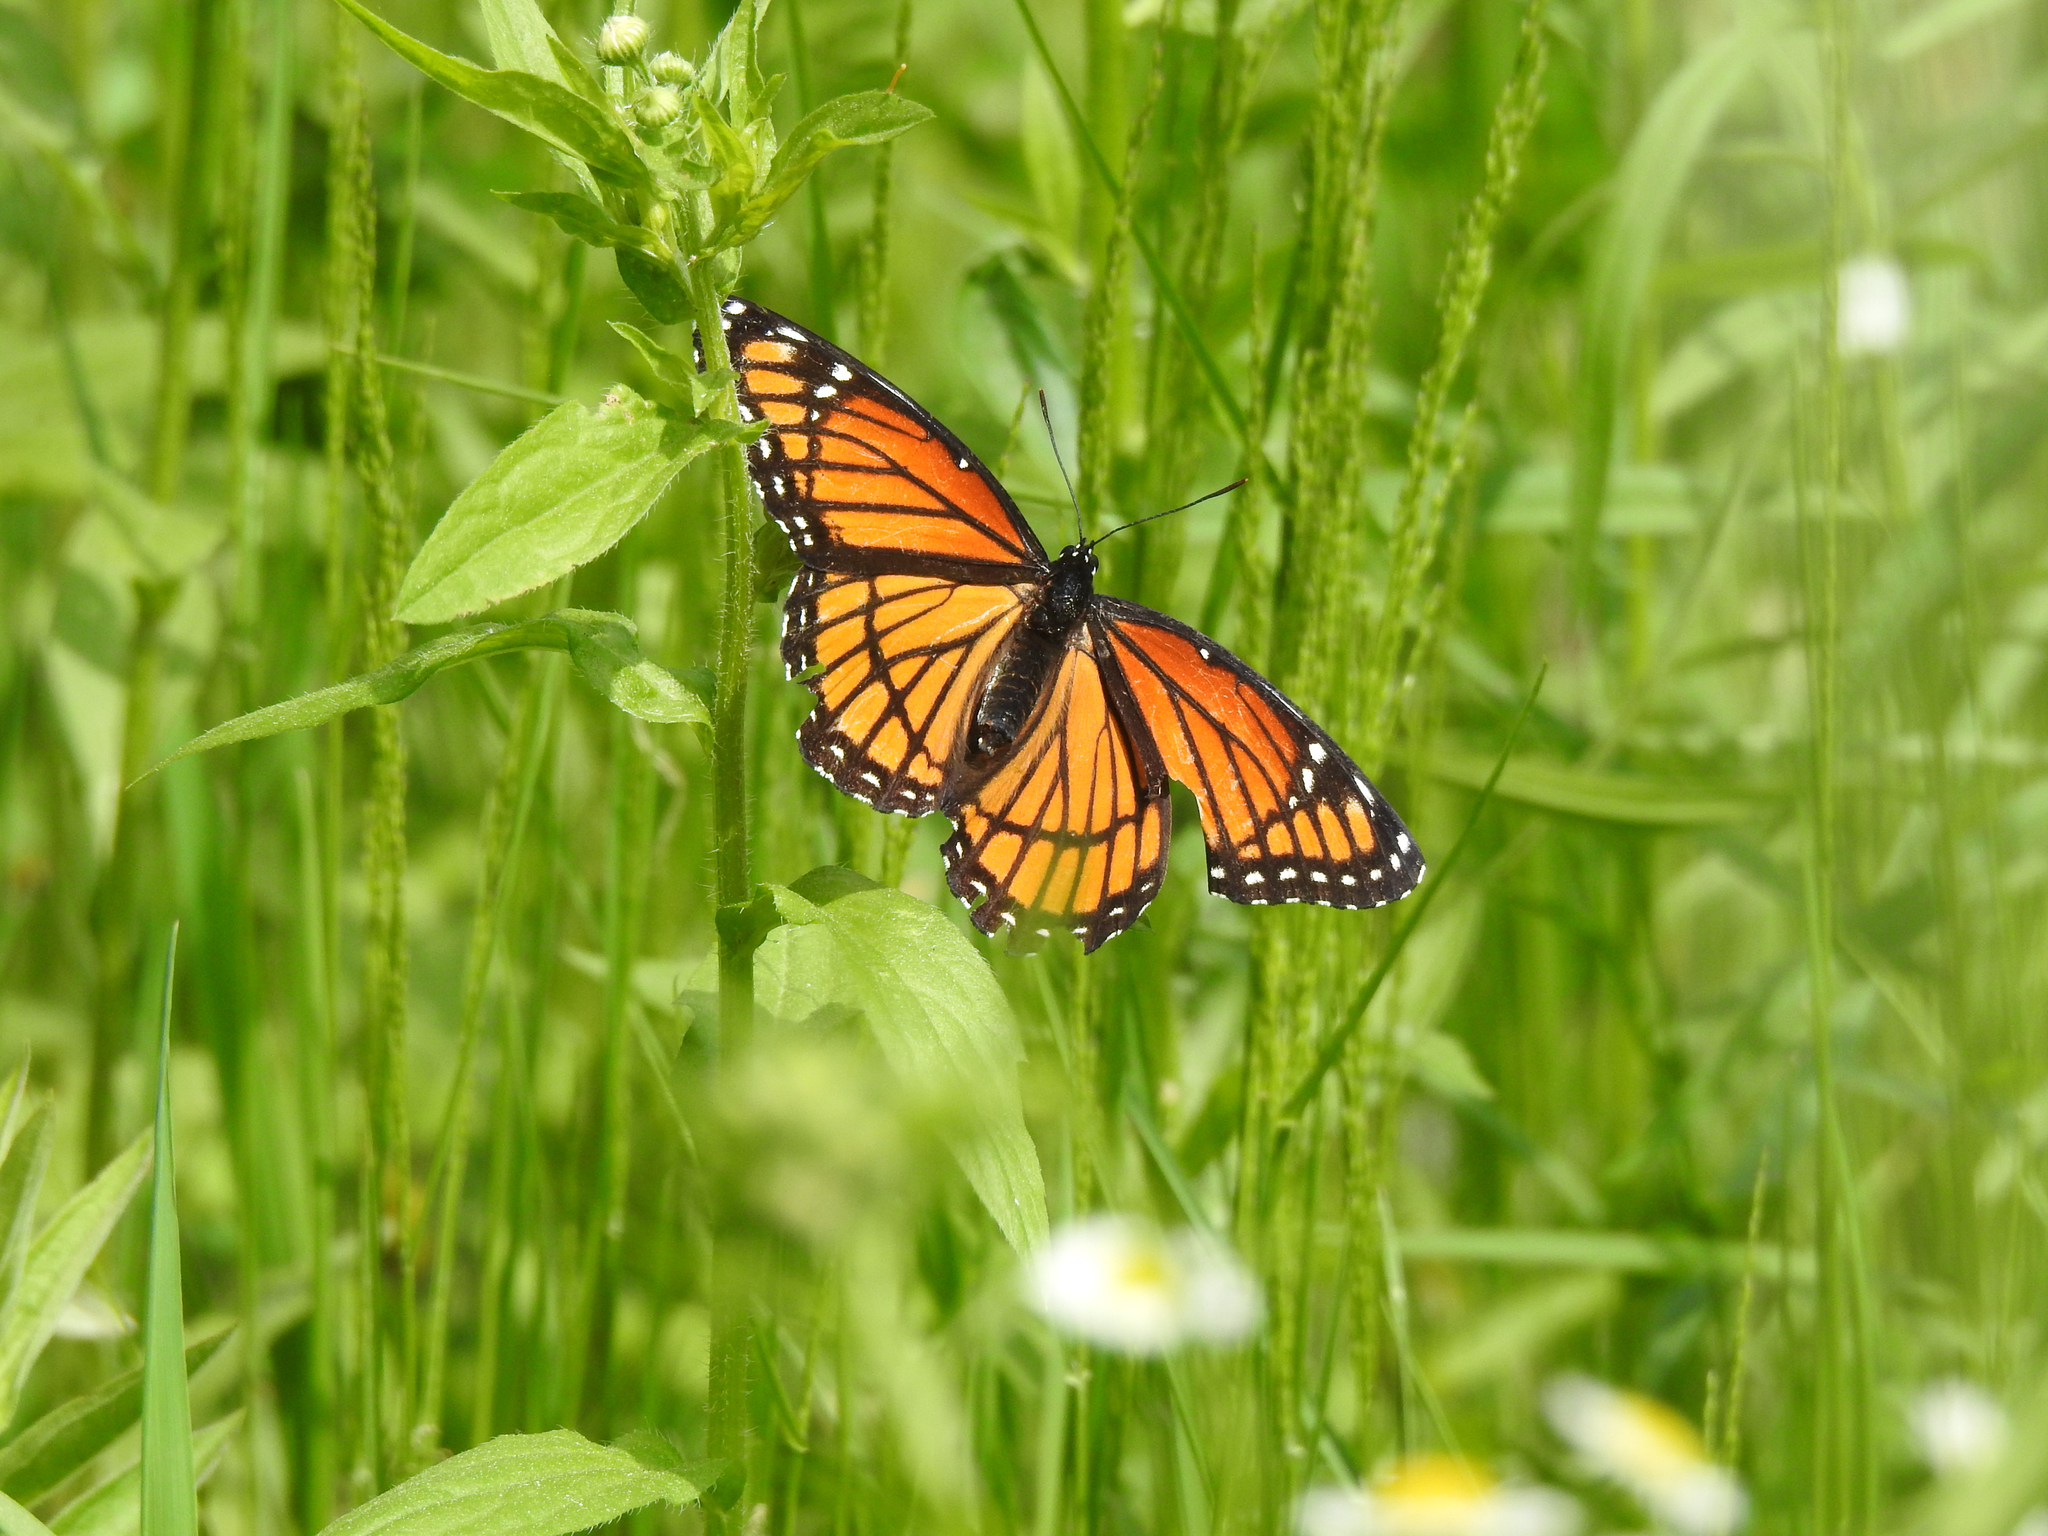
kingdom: Animalia
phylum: Arthropoda
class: Insecta
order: Lepidoptera
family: Nymphalidae
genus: Limenitis
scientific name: Limenitis archippus
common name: Viceroy
